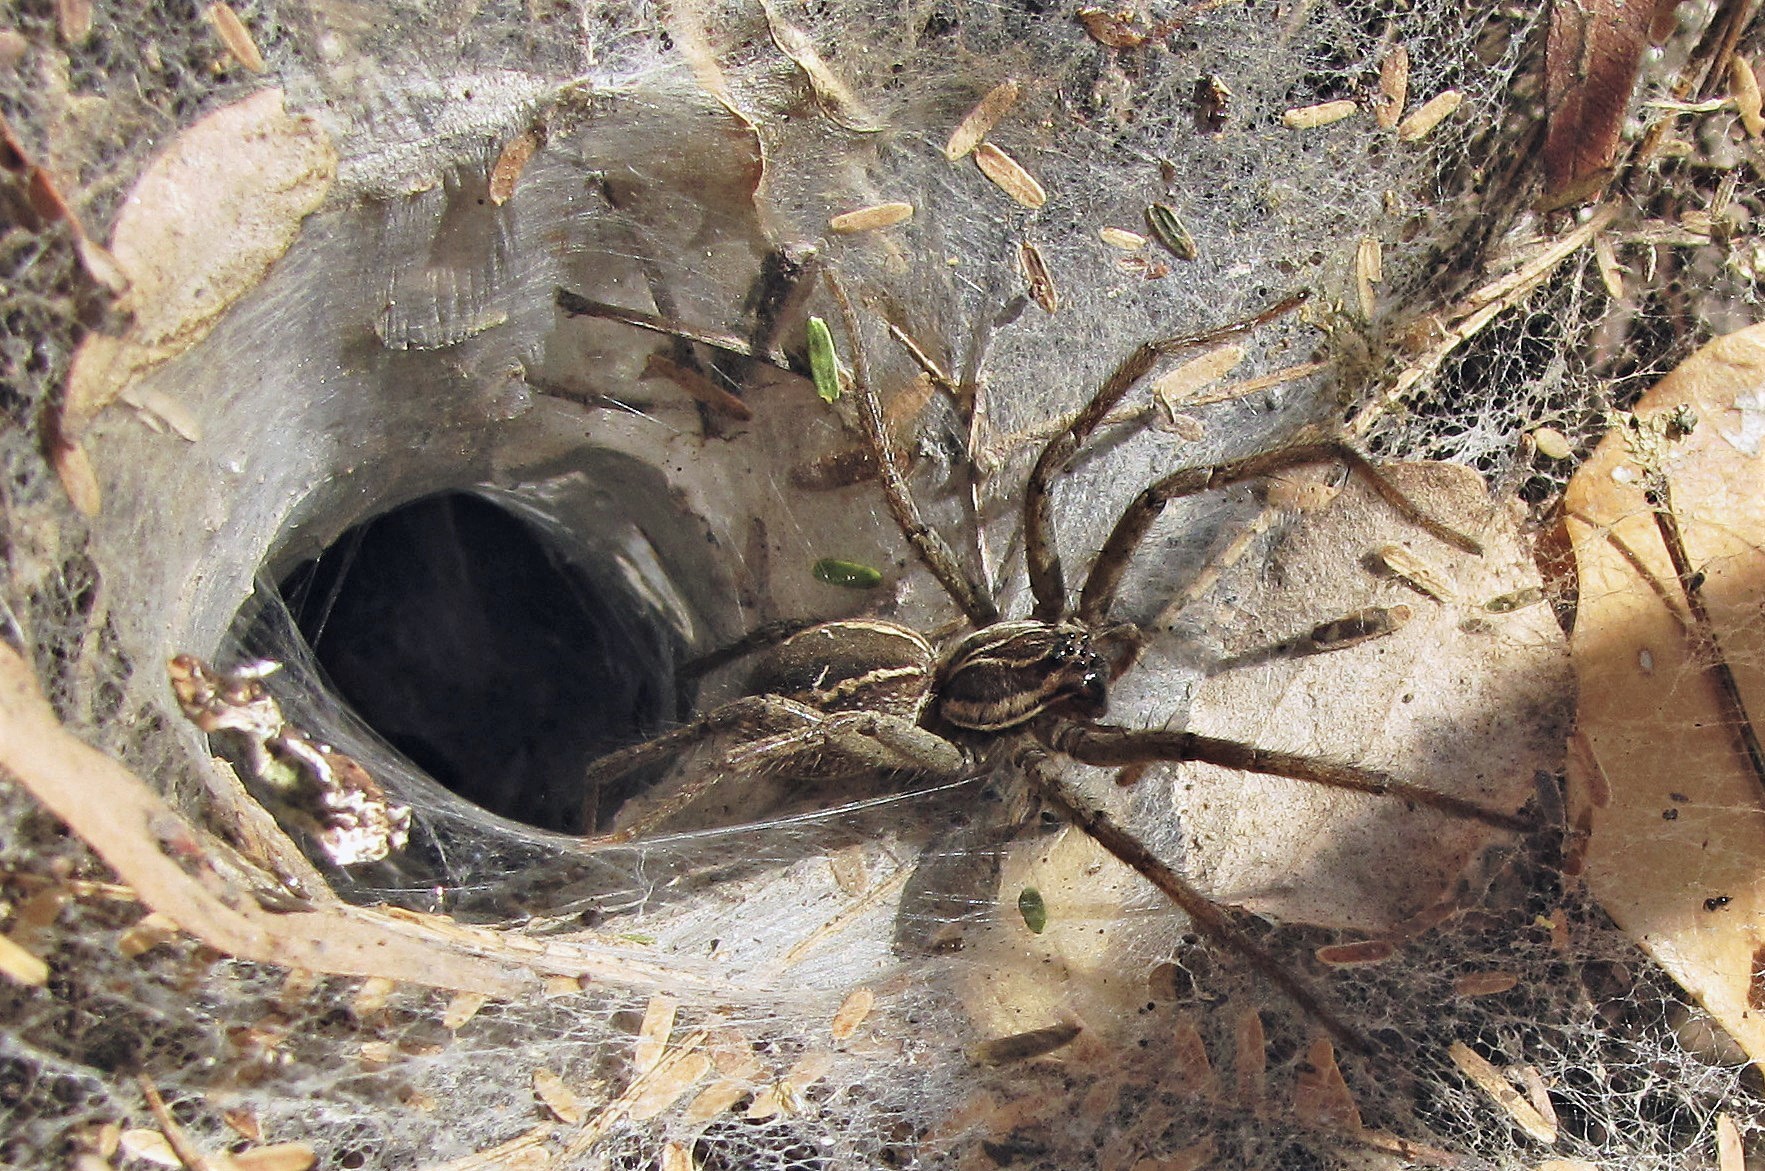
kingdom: Animalia
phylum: Arthropoda
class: Arachnida
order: Araneae
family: Lycosidae
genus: Aglaoctenus
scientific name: Aglaoctenus lagotis
